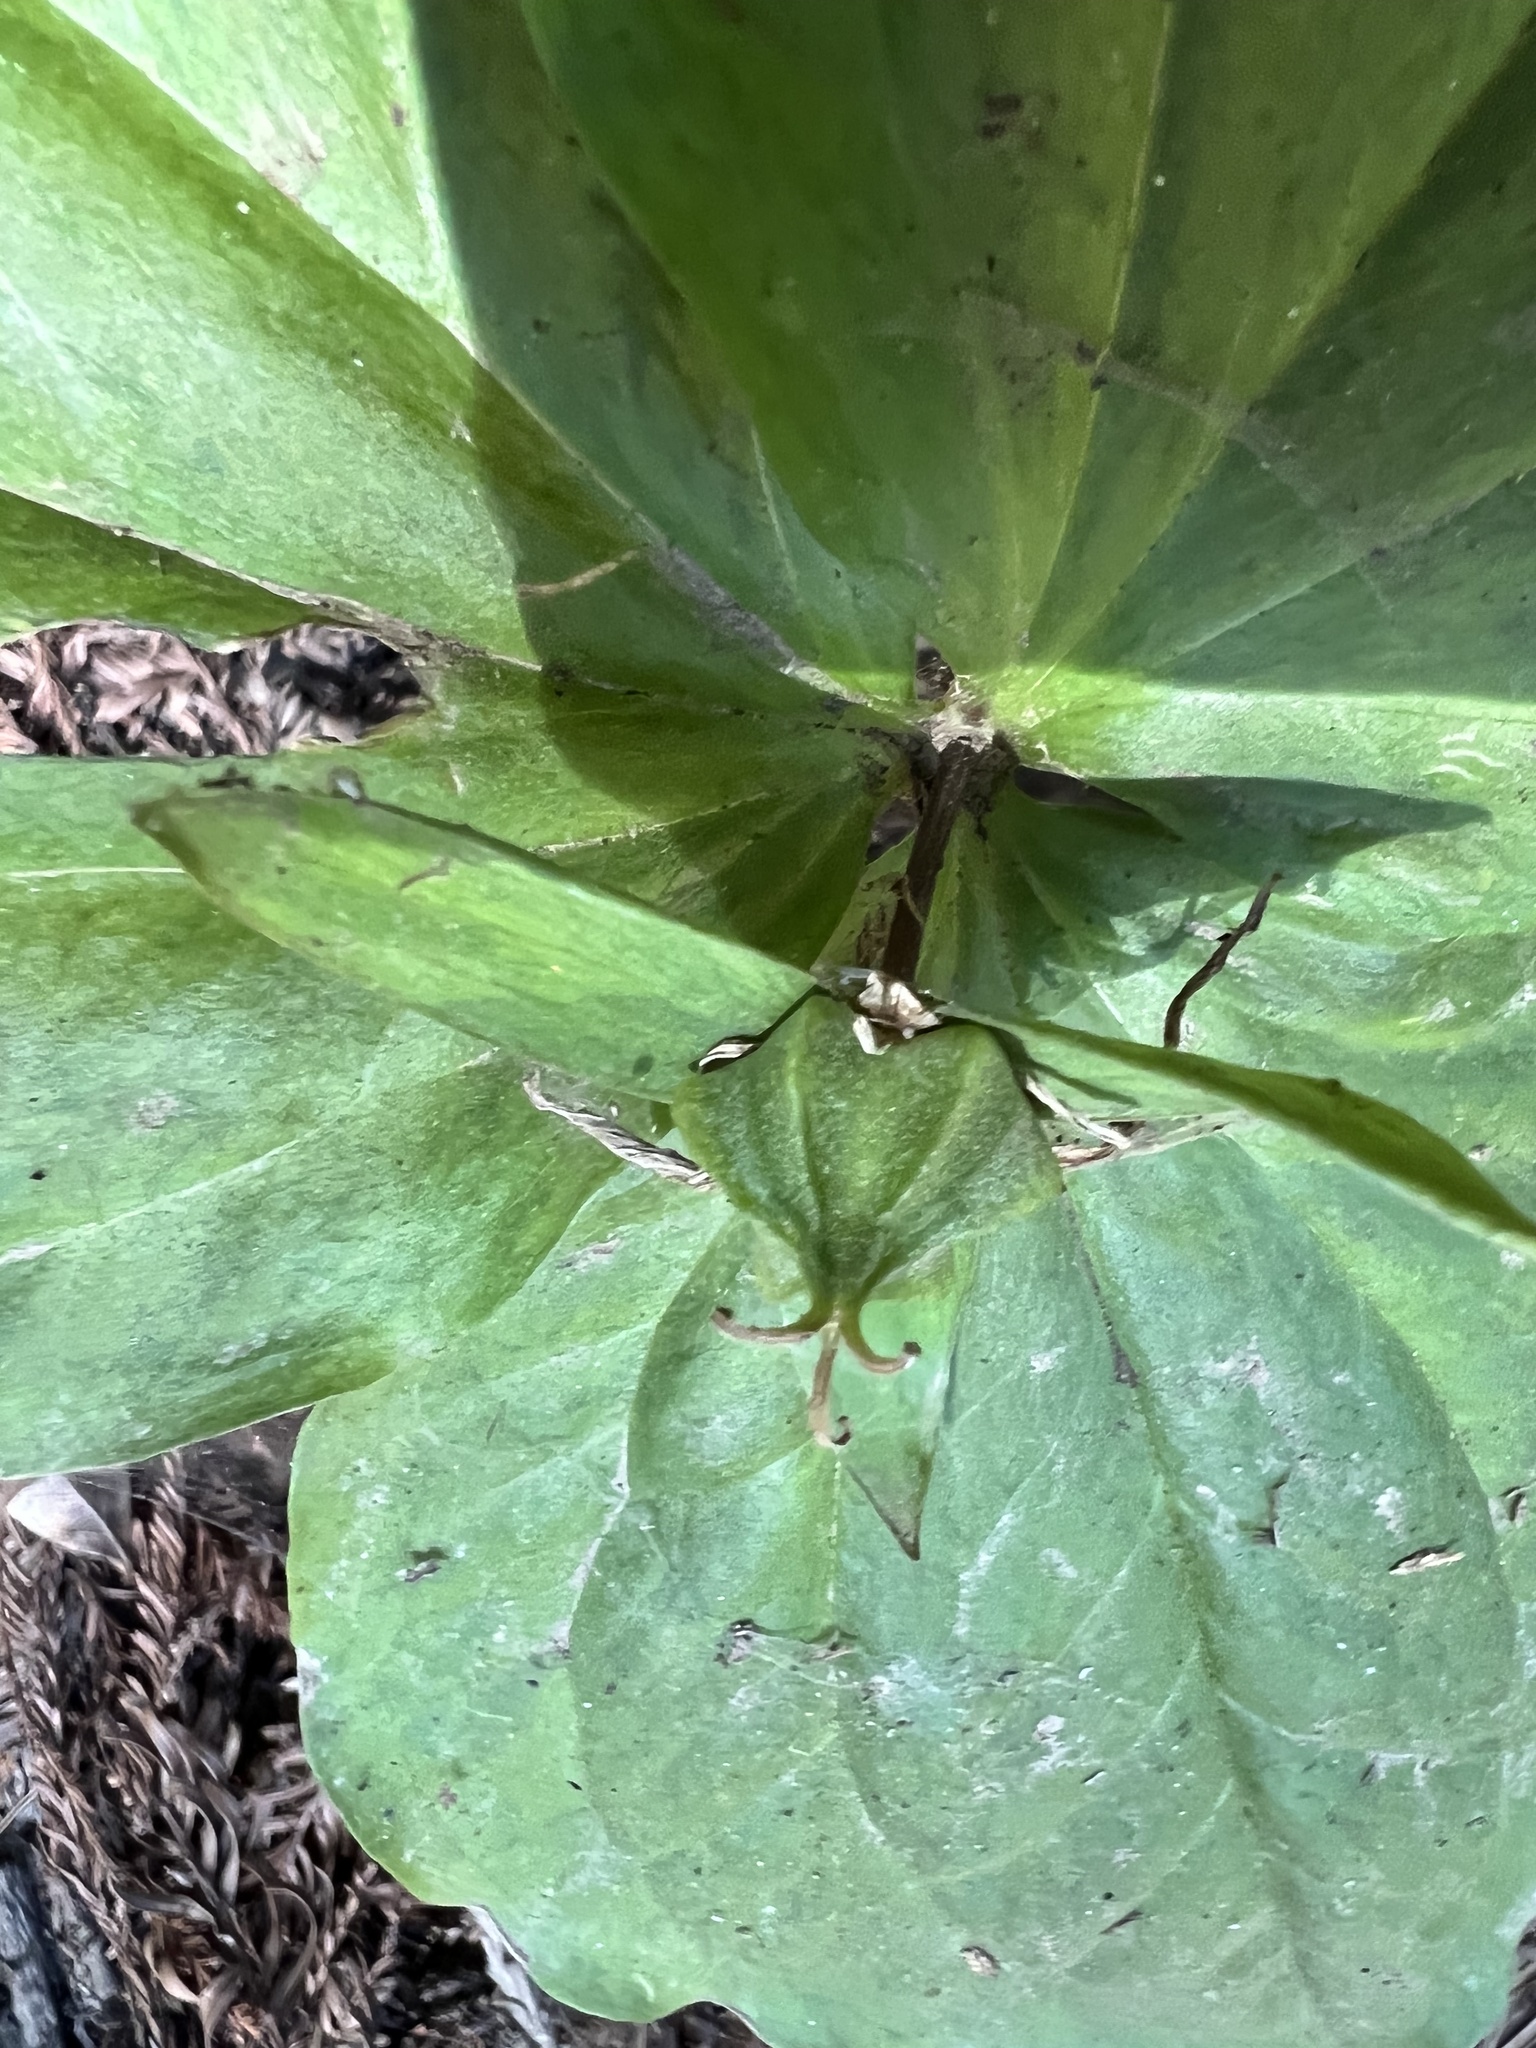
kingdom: Plantae
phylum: Tracheophyta
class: Liliopsida
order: Liliales
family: Melanthiaceae
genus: Trillium
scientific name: Trillium ovatum
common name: Pacific trillium
